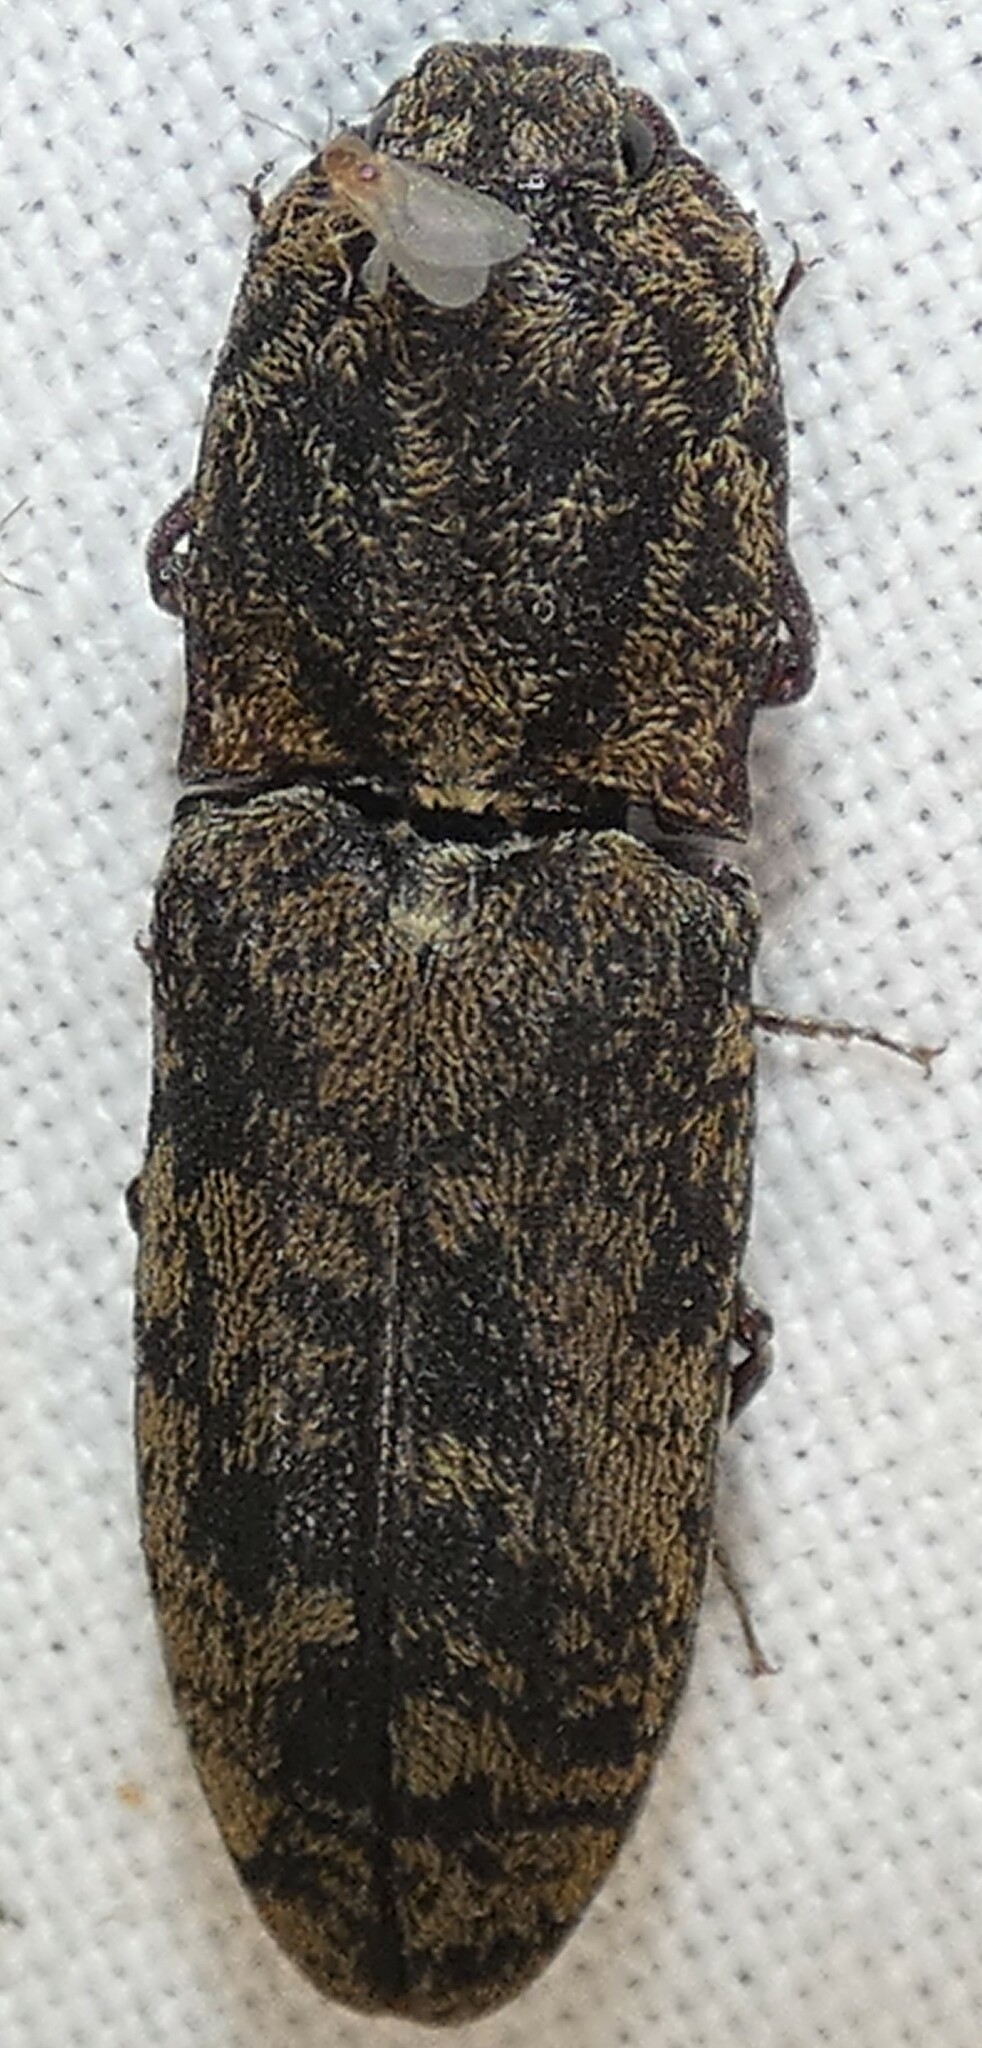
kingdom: Animalia
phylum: Arthropoda
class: Insecta
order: Coleoptera
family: Elateridae
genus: Lacon
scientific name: Lacon marmoratus
